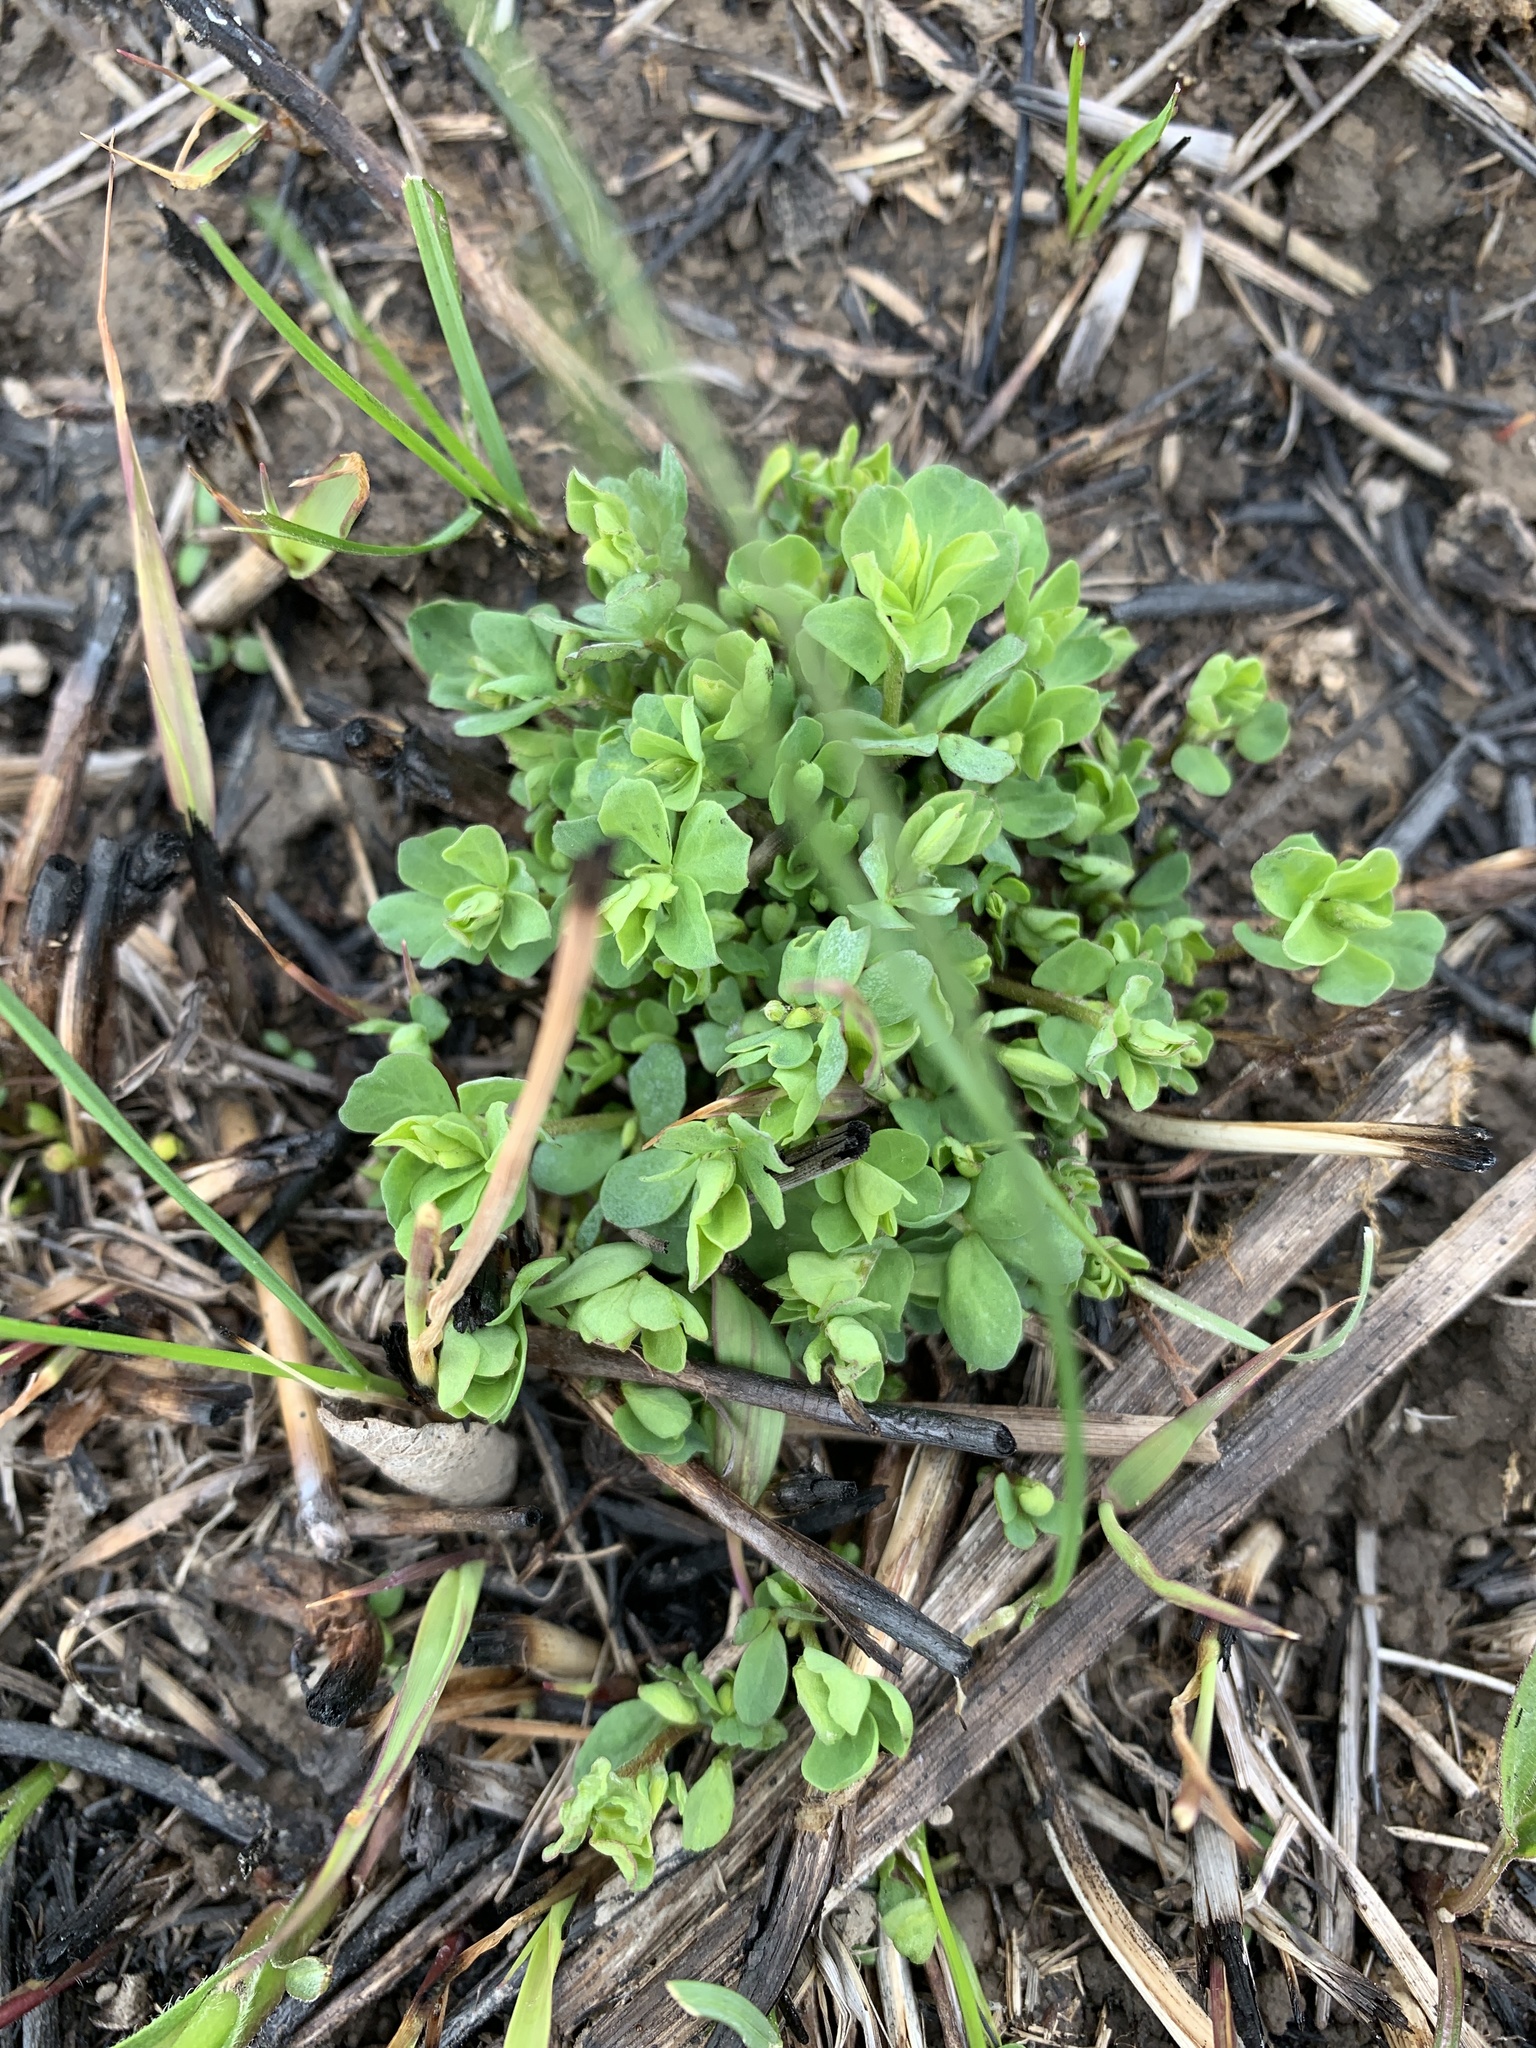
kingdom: Plantae
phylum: Tracheophyta
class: Magnoliopsida
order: Fabales
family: Fabaceae
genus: Lotus
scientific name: Lotus corniculatus
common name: Common bird's-foot-trefoil
